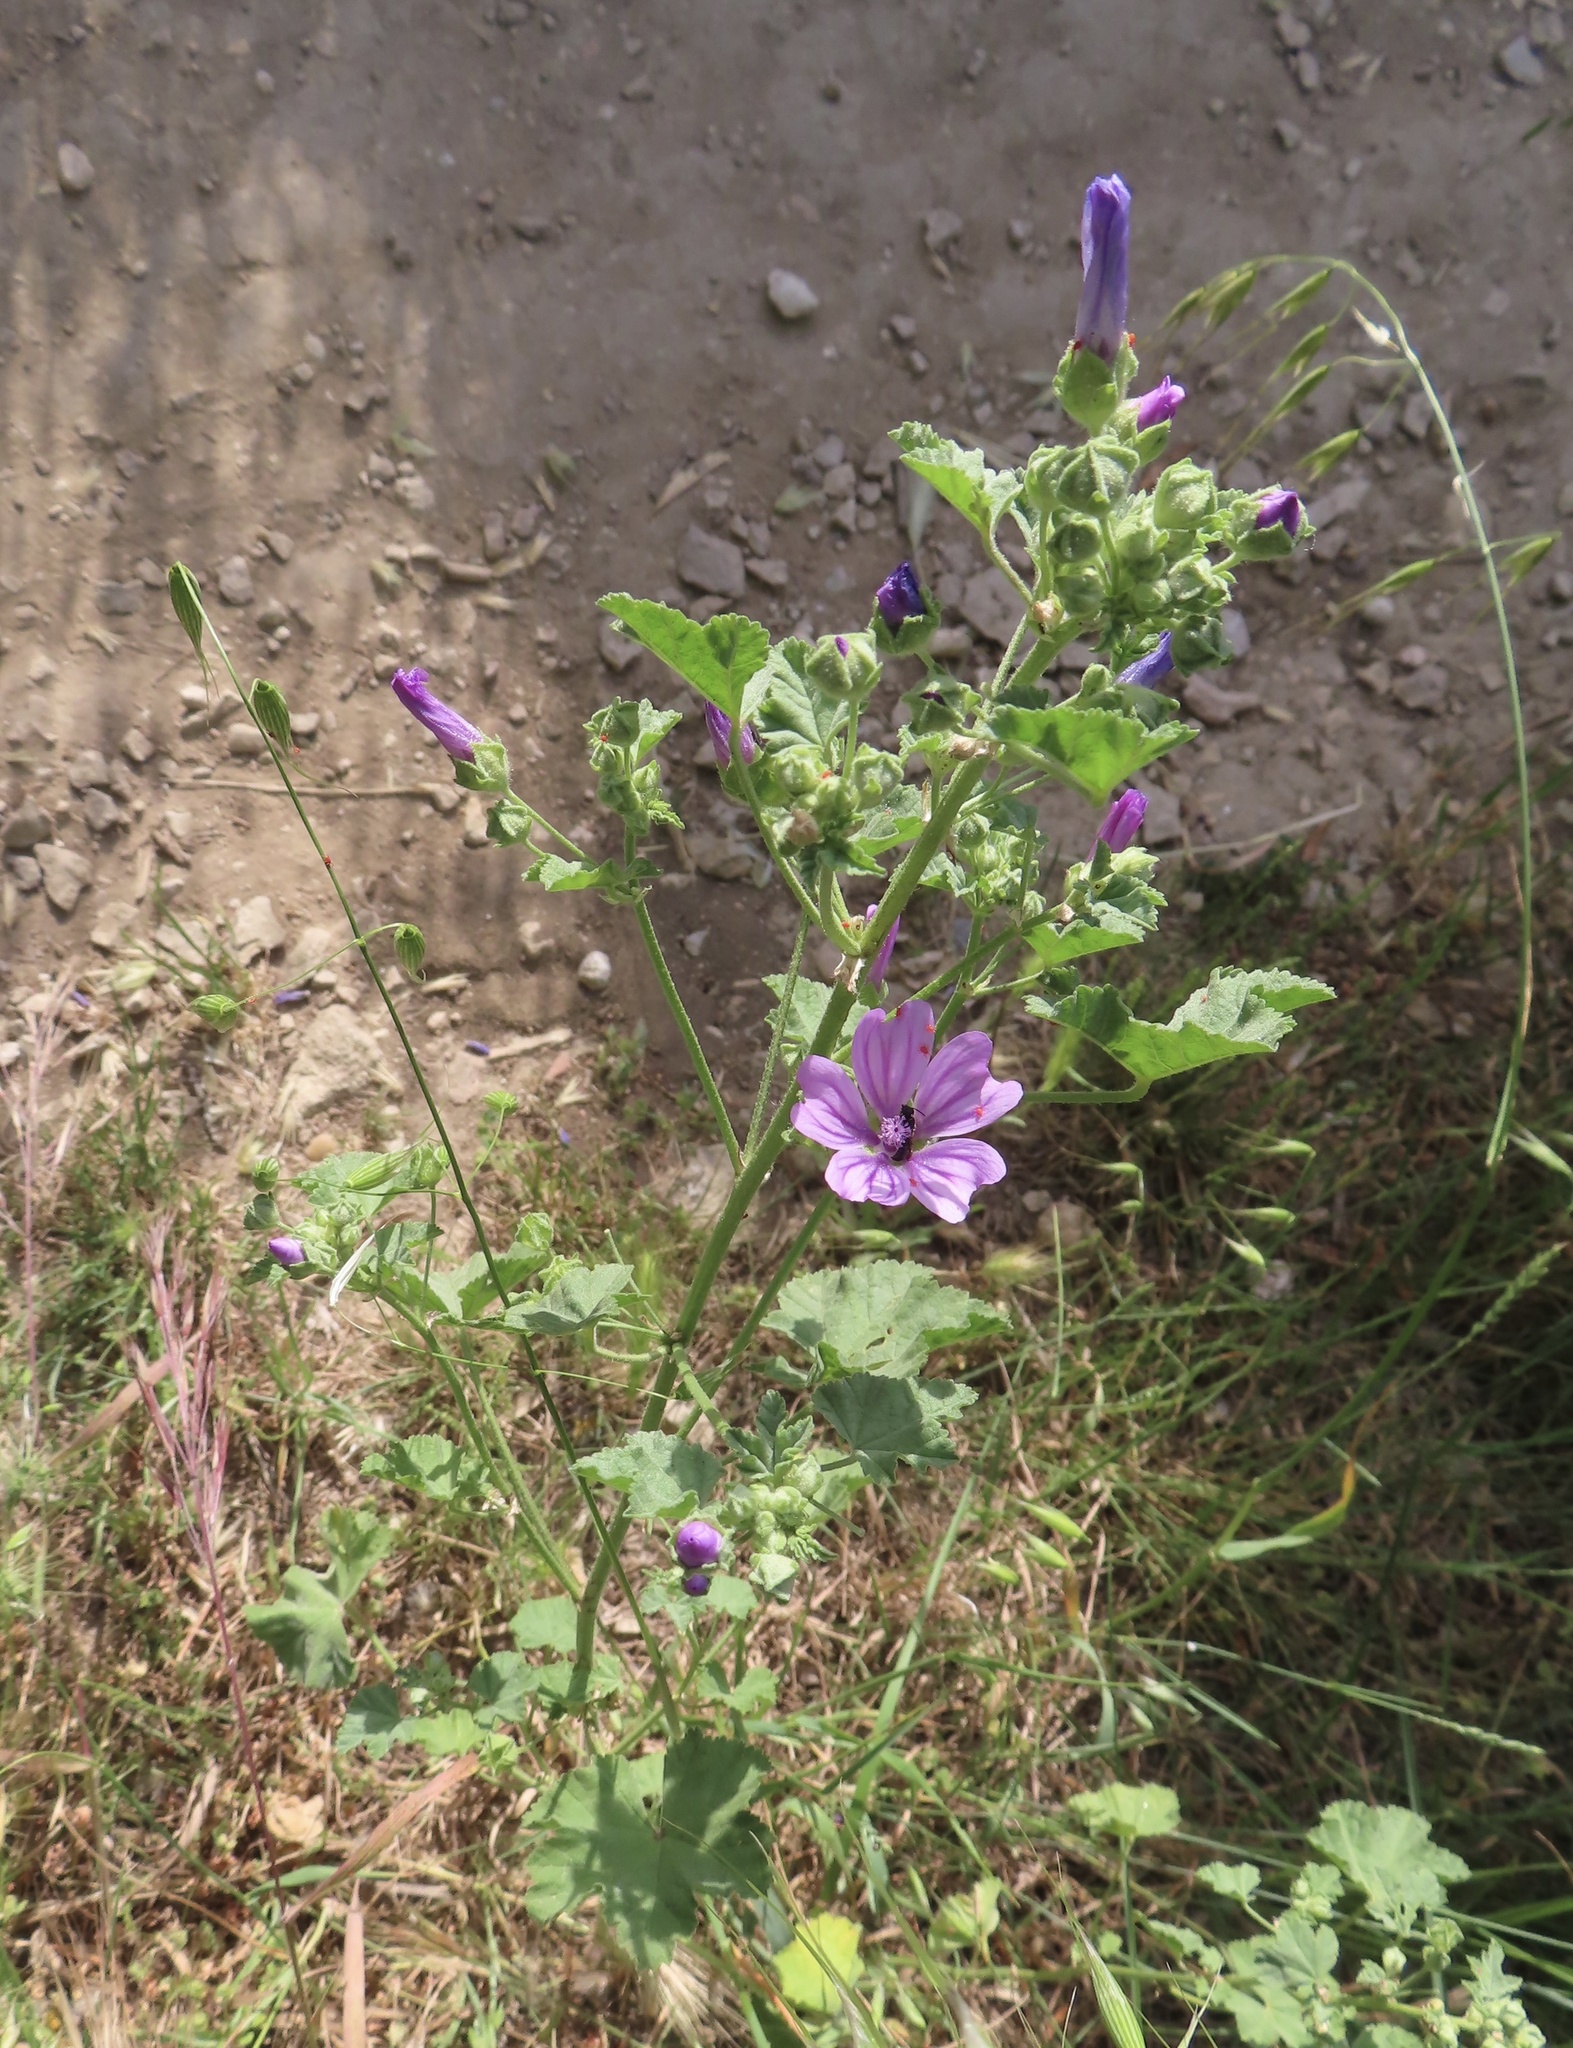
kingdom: Plantae
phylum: Tracheophyta
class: Magnoliopsida
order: Malvales
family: Malvaceae
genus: Malva
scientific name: Malva sylvestris
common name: Common mallow
